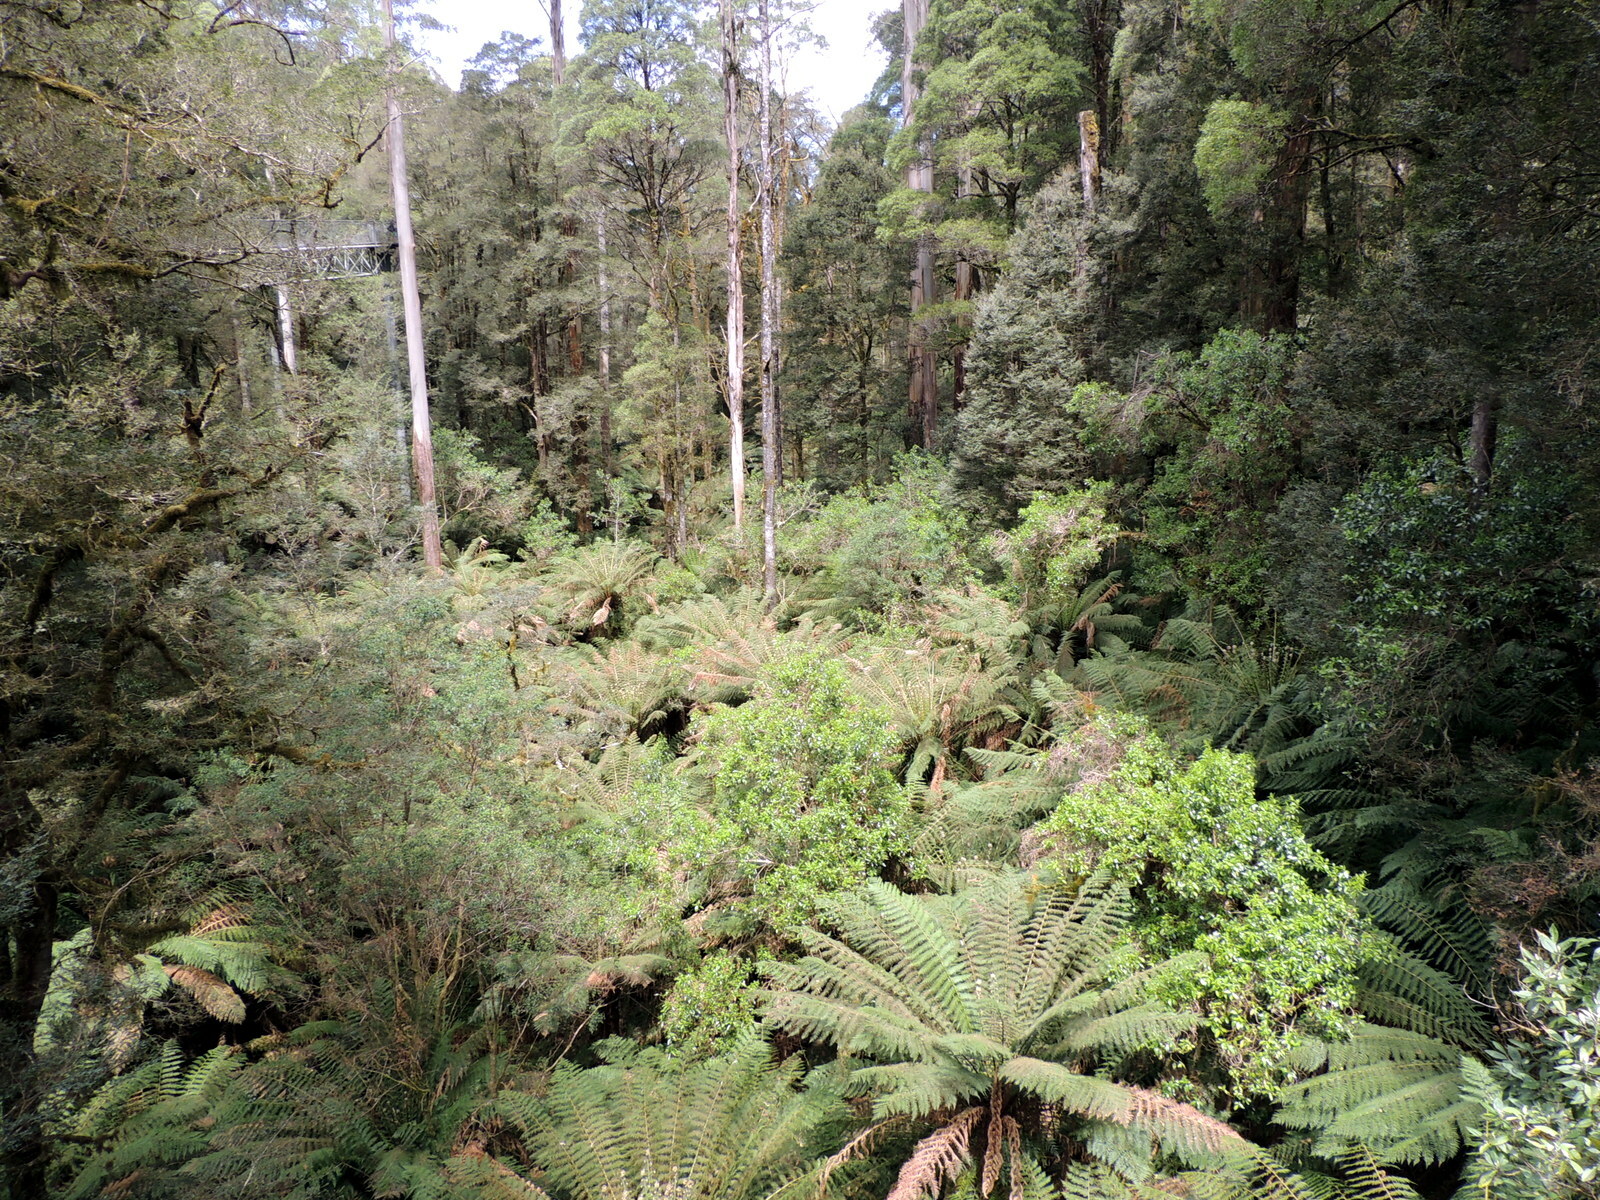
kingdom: Plantae
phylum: Tracheophyta
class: Polypodiopsida
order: Cyatheales
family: Dicksoniaceae
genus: Dicksonia
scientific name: Dicksonia antarctica
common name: Australian treefern
